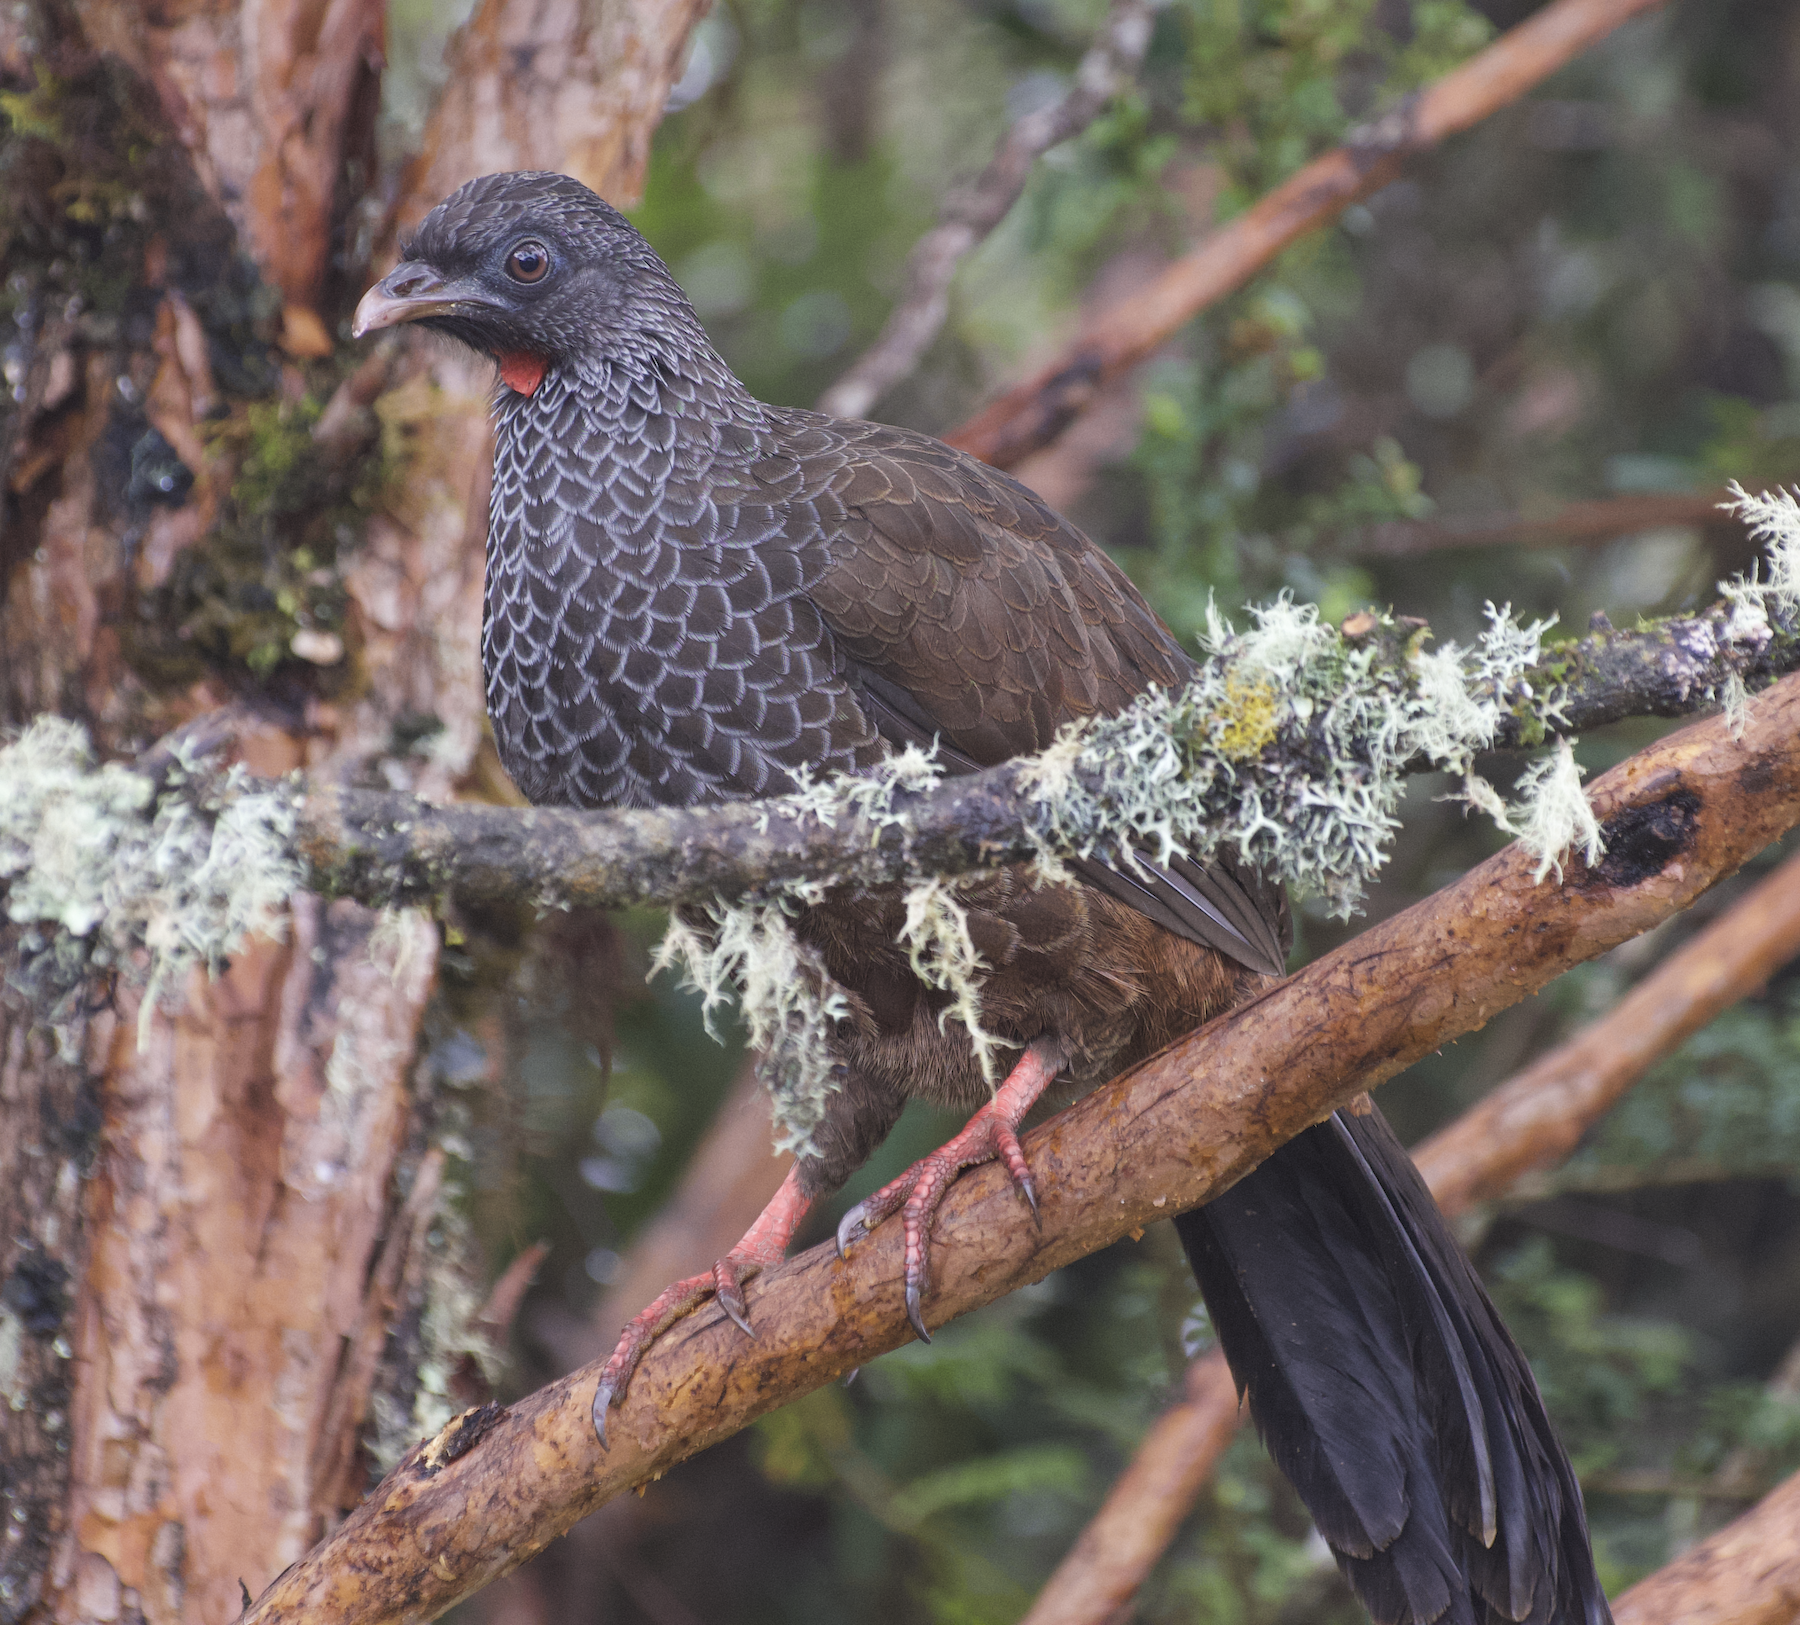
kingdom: Animalia
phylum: Chordata
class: Aves
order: Galliformes
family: Cracidae
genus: Penelope
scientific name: Penelope montagnii
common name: Andean guan
